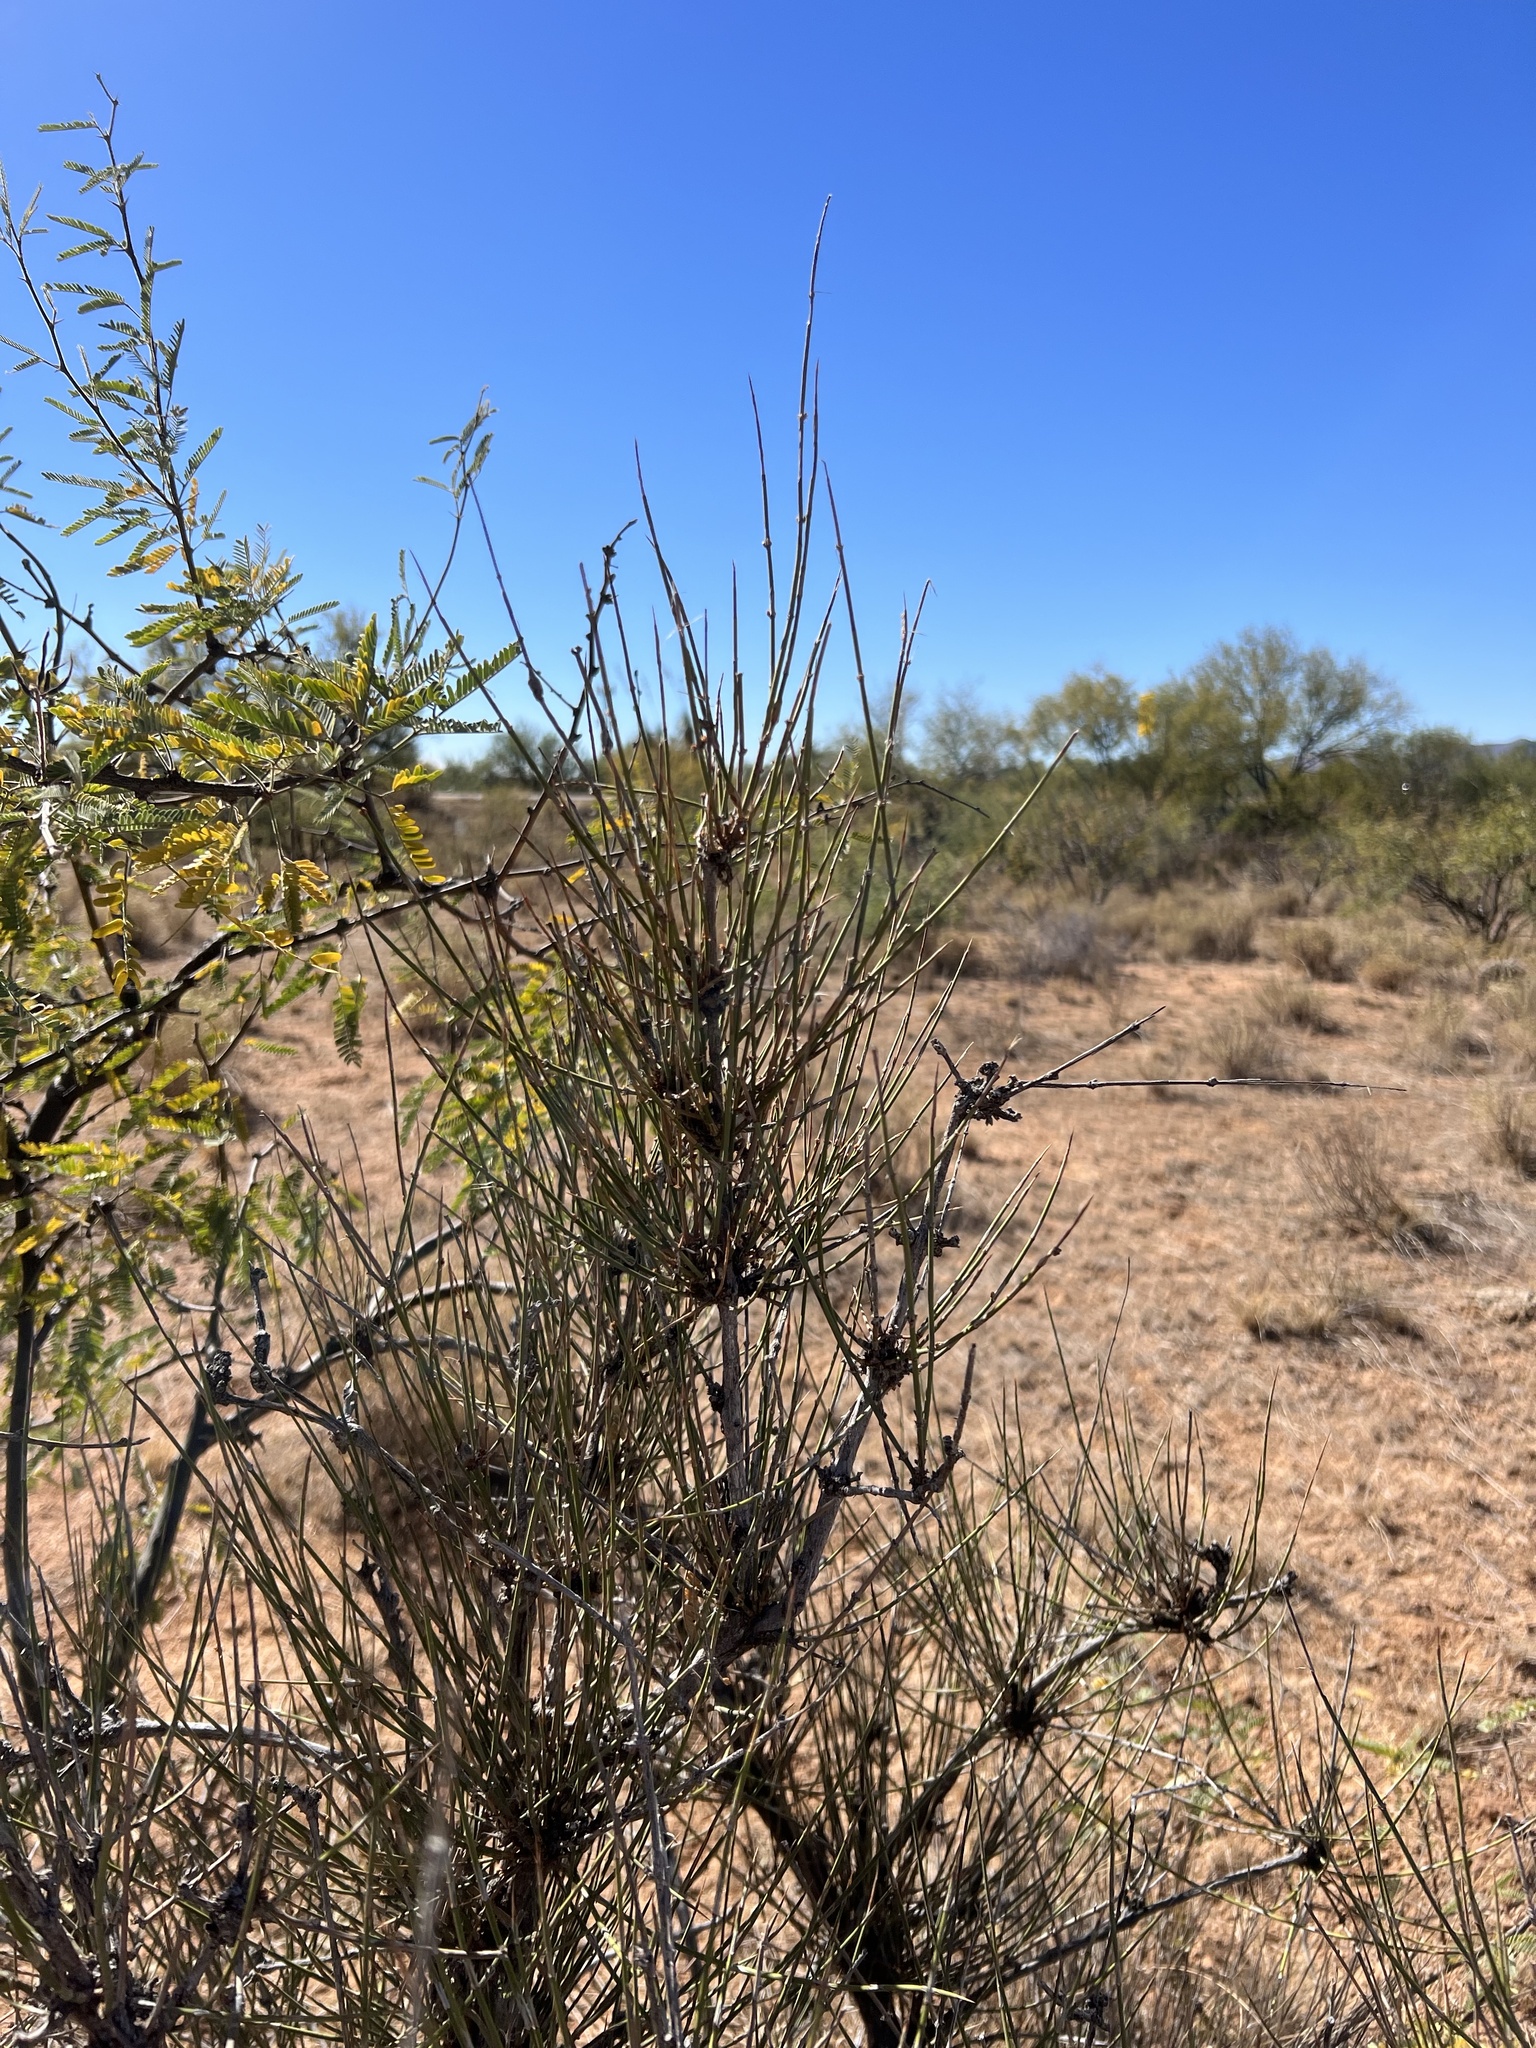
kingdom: Plantae
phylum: Tracheophyta
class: Gnetopsida
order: Ephedrales
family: Ephedraceae
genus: Ephedra
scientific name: Ephedra trifurca
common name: Mexican-tea
